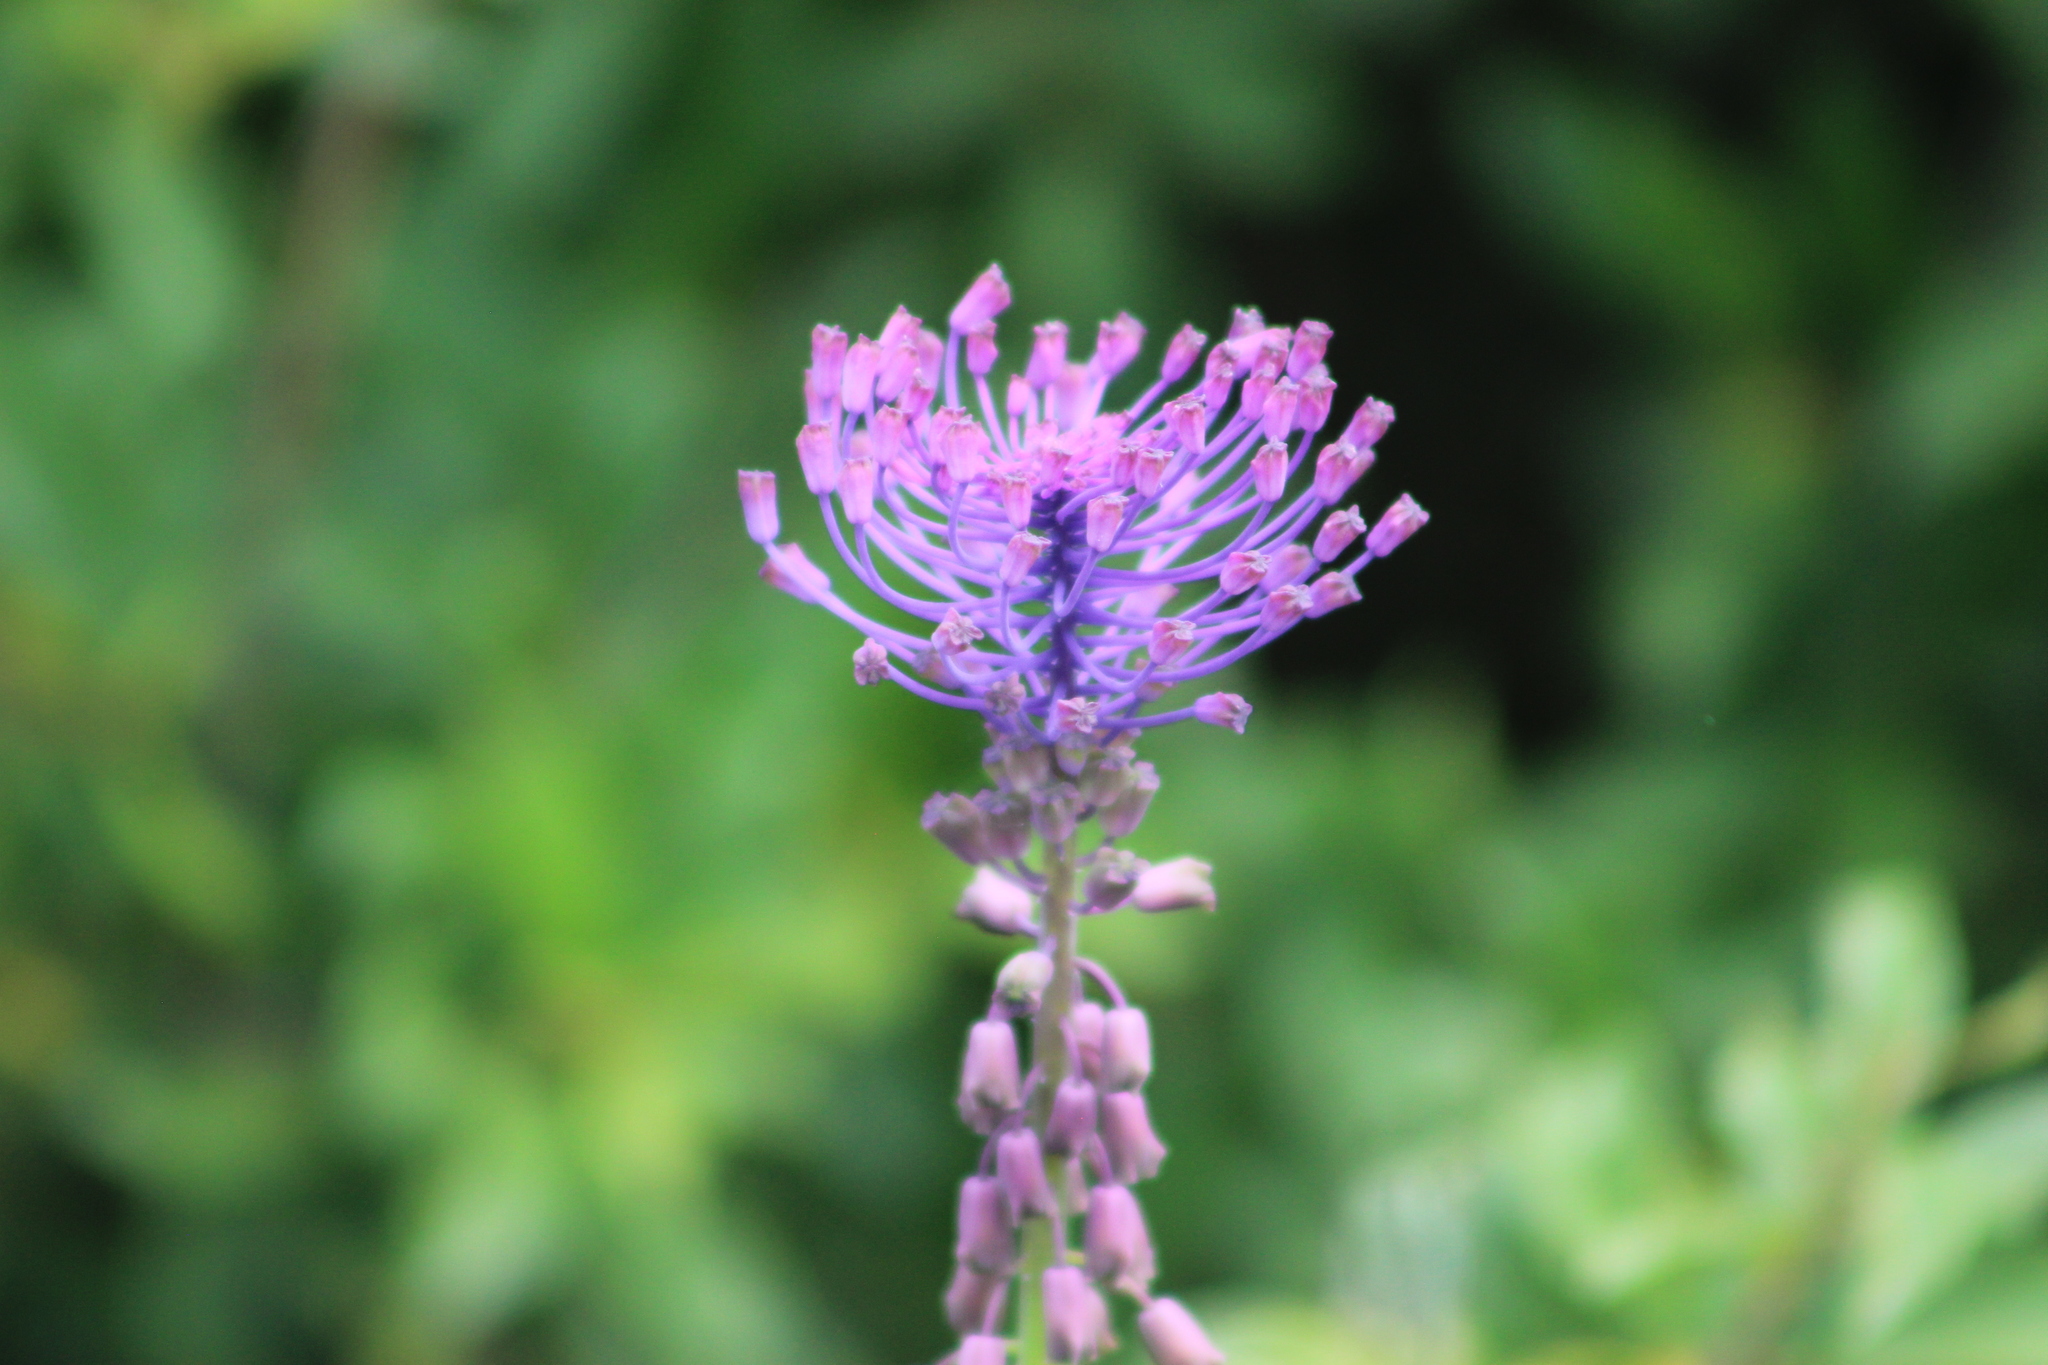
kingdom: Plantae
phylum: Tracheophyta
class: Liliopsida
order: Asparagales
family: Asparagaceae
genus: Muscari
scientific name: Muscari comosum
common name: Tassel hyacinth
